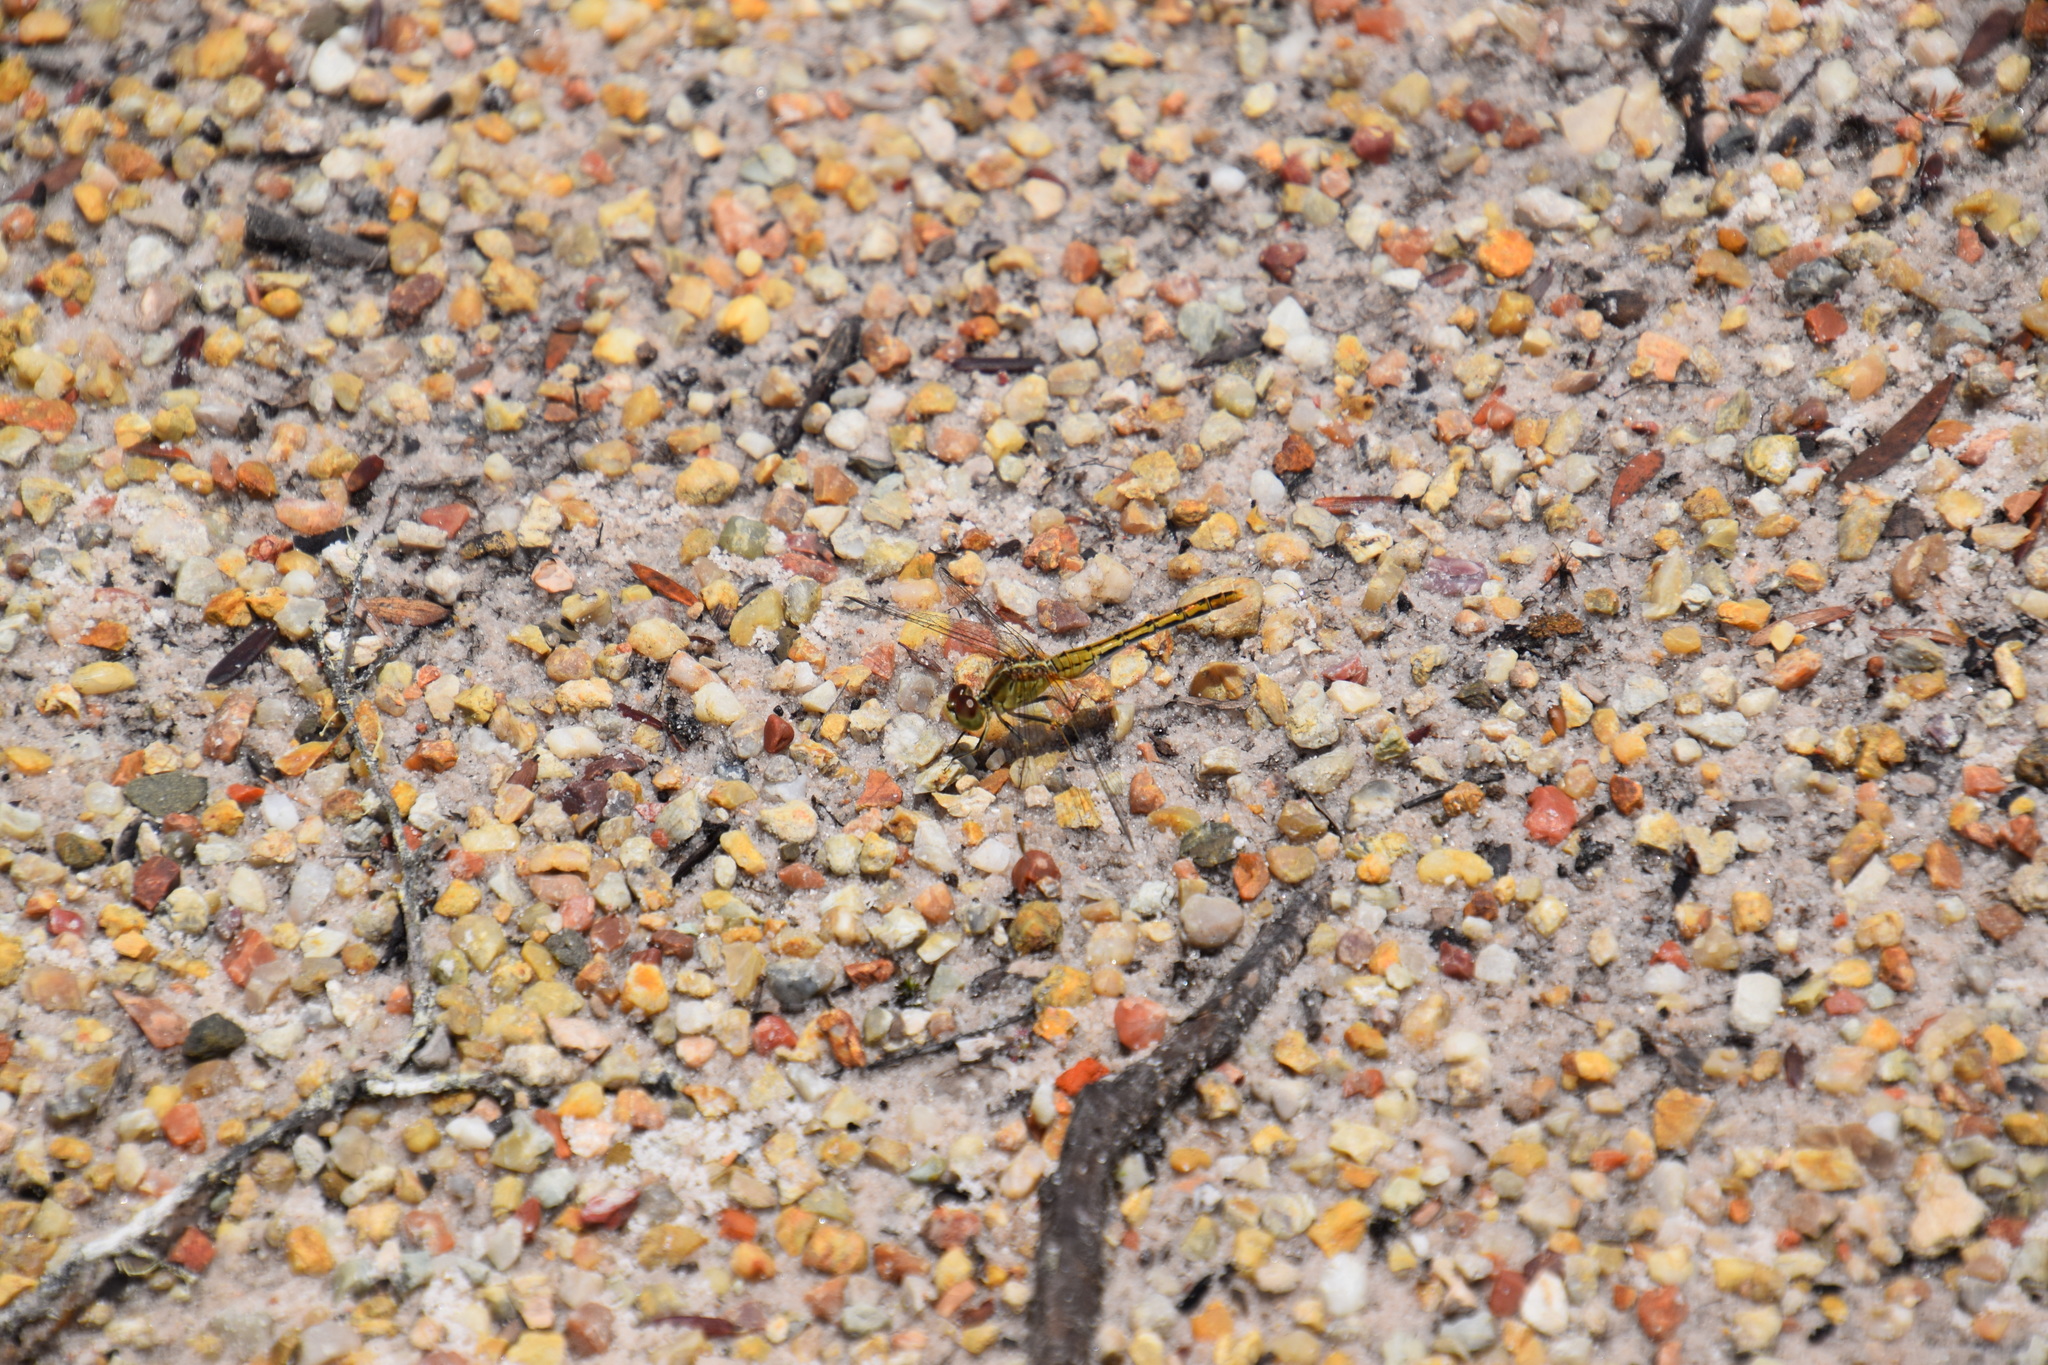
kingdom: Animalia
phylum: Arthropoda
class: Insecta
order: Odonata
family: Libellulidae
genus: Diplacodes
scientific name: Diplacodes bipunctata
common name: Red percher dragonfly
